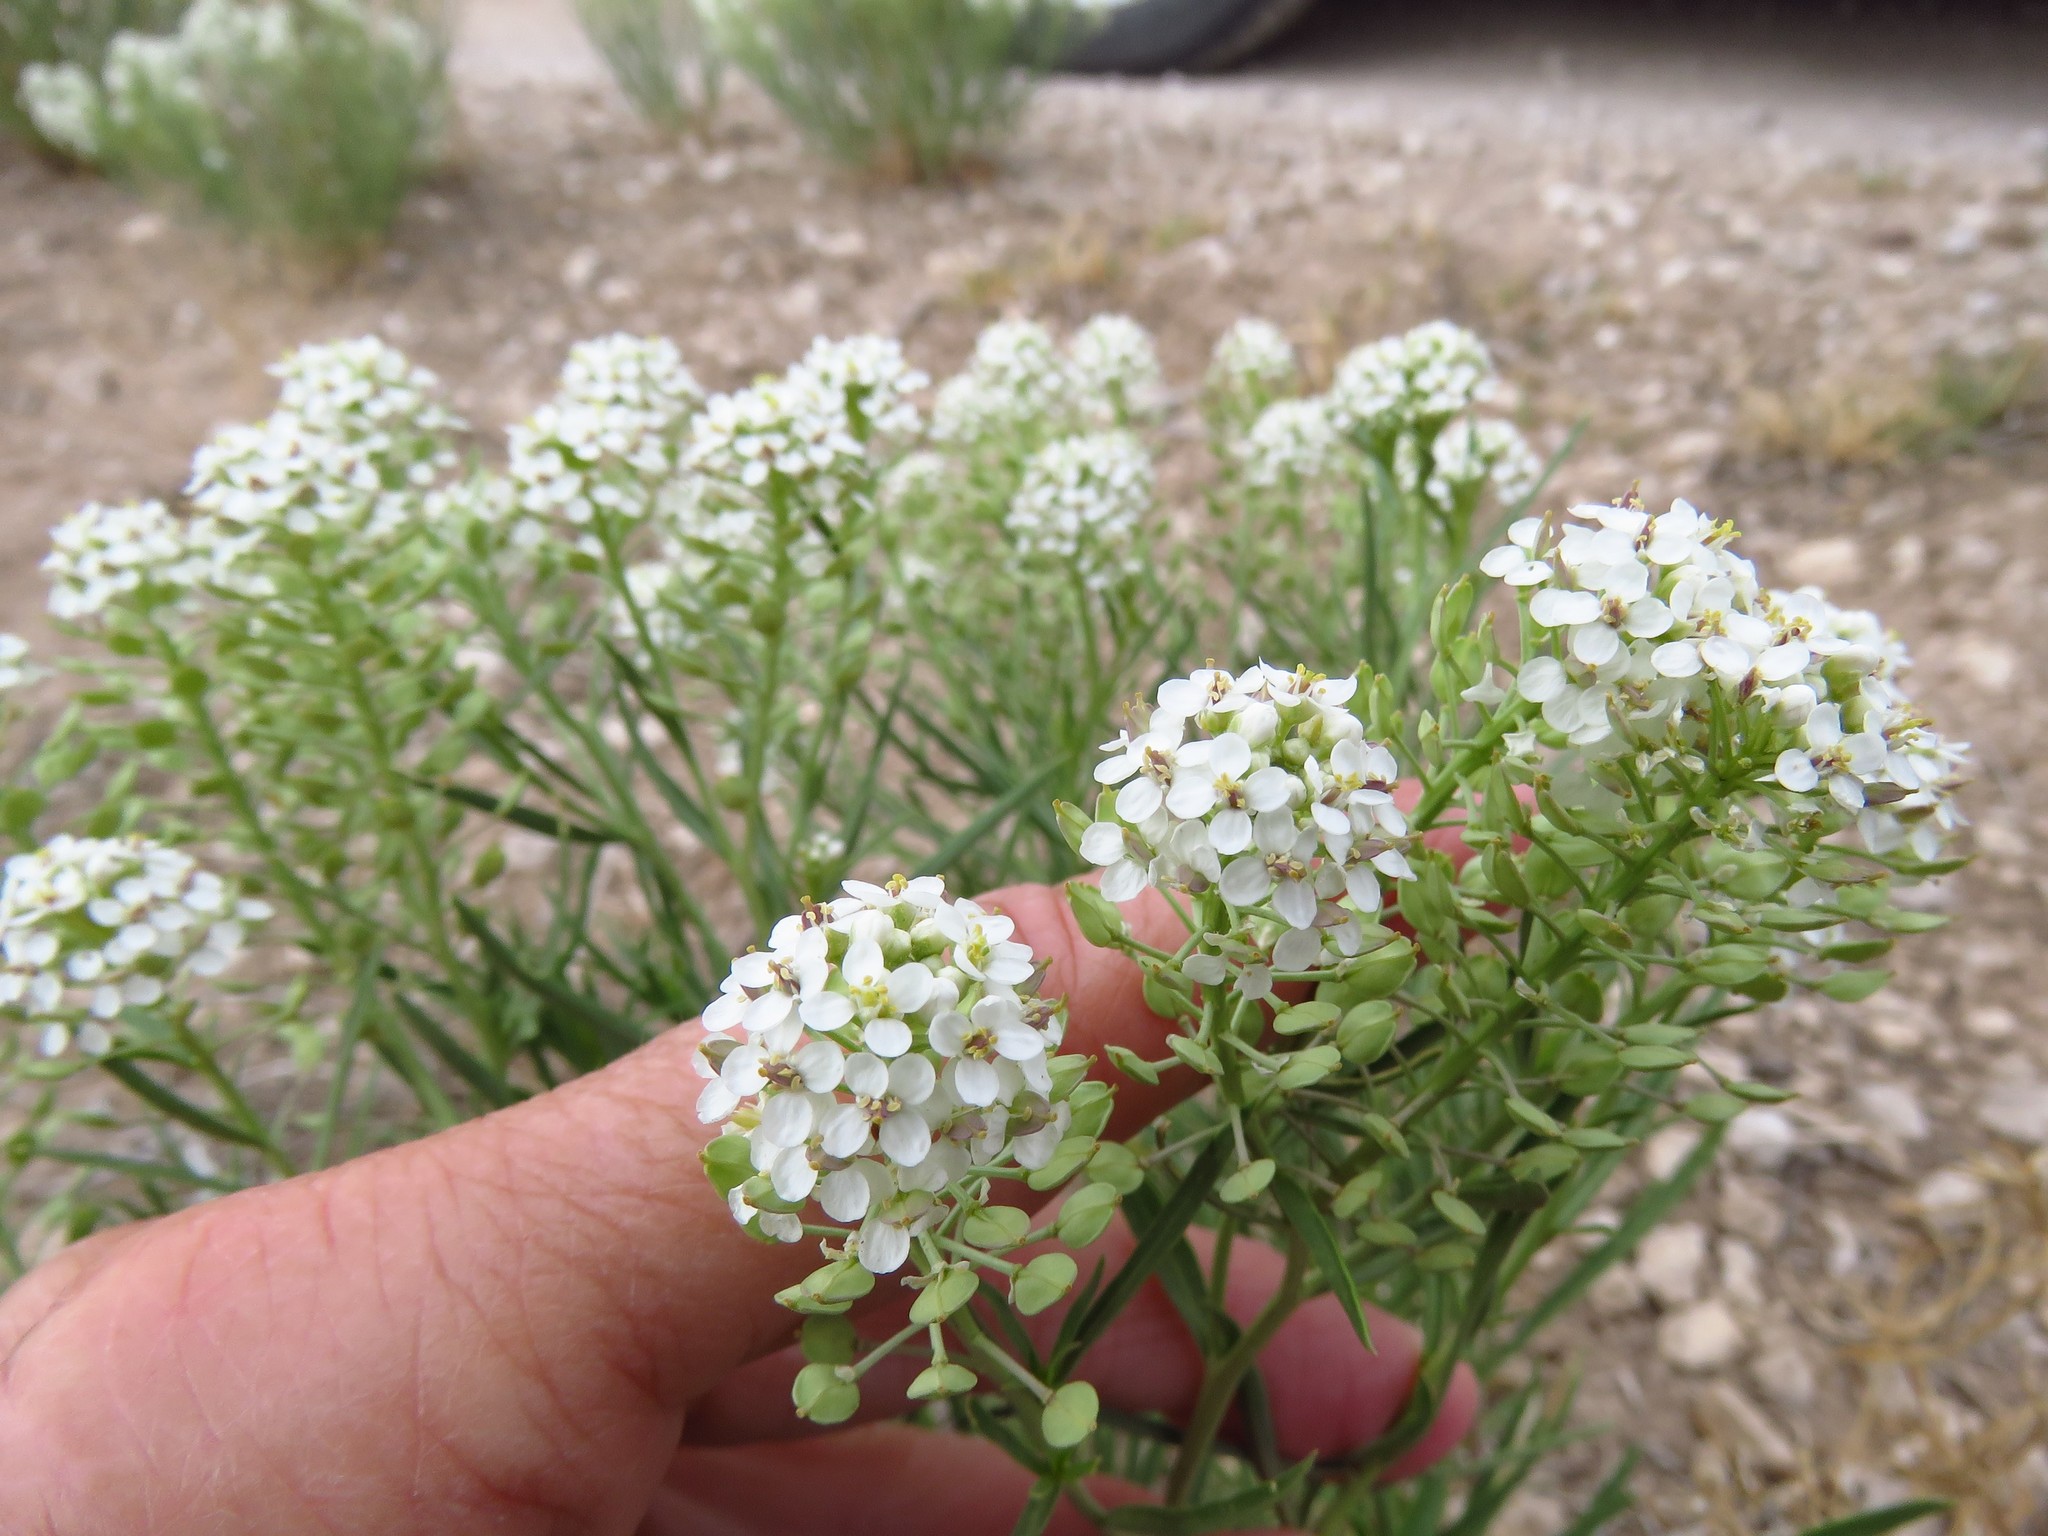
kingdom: Plantae
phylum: Tracheophyta
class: Magnoliopsida
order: Brassicales
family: Brassicaceae
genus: Lepidium
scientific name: Lepidium alyssoides
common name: Mesa pepperweed
